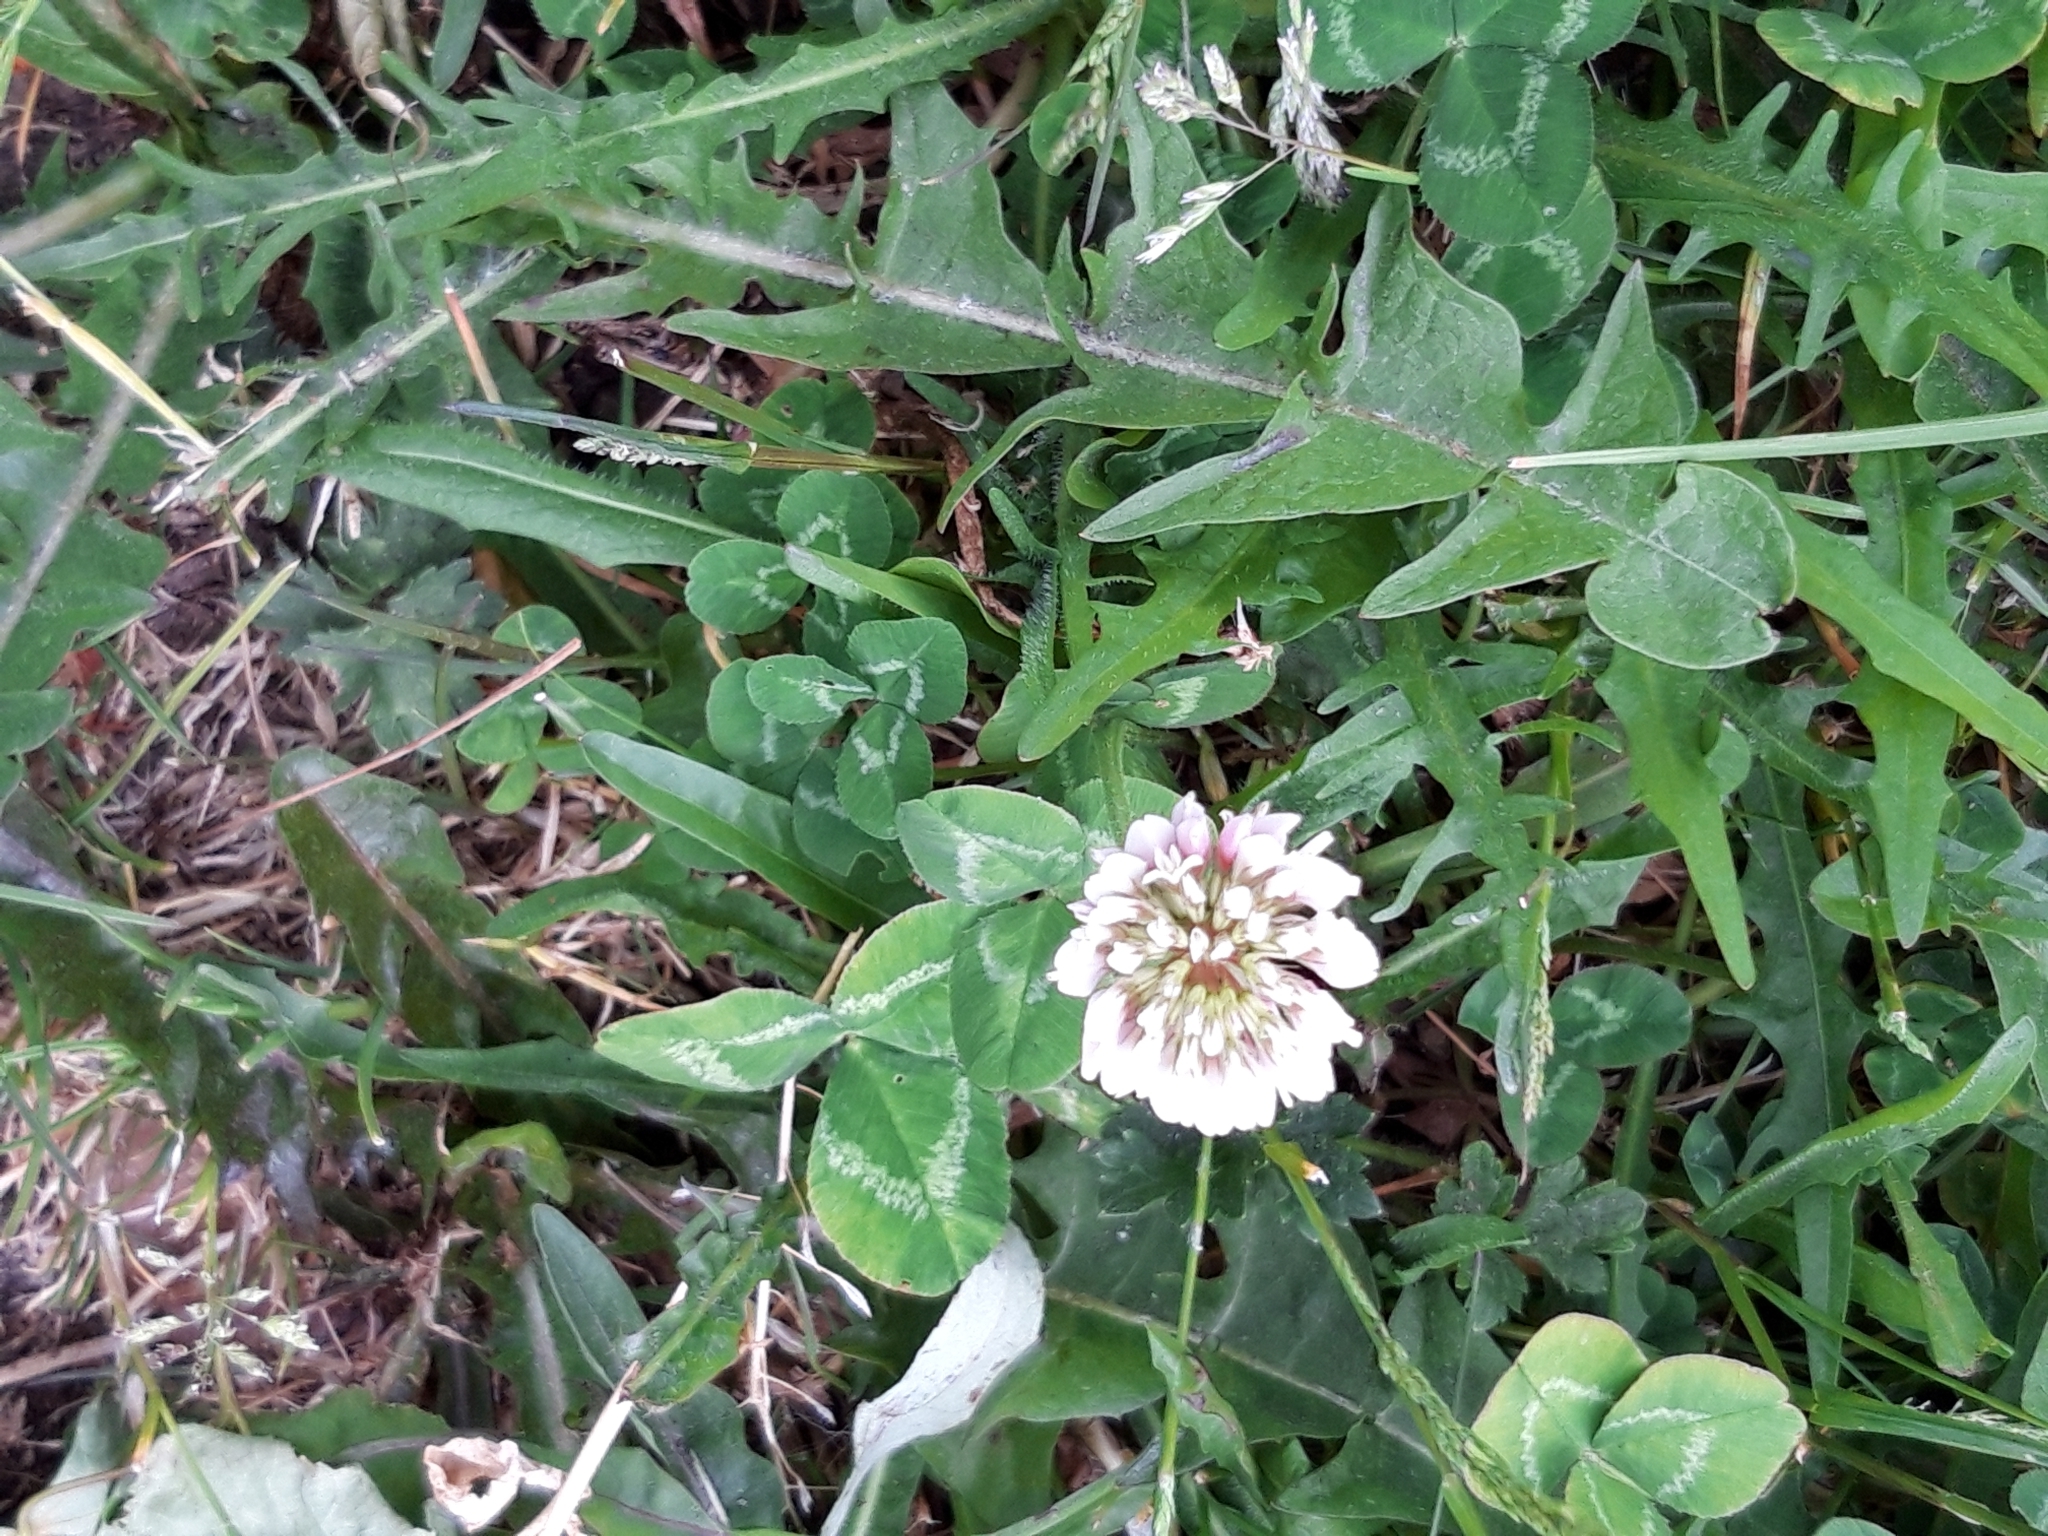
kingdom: Plantae
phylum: Tracheophyta
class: Magnoliopsida
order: Fabales
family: Fabaceae
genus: Trifolium
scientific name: Trifolium repens
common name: White clover
